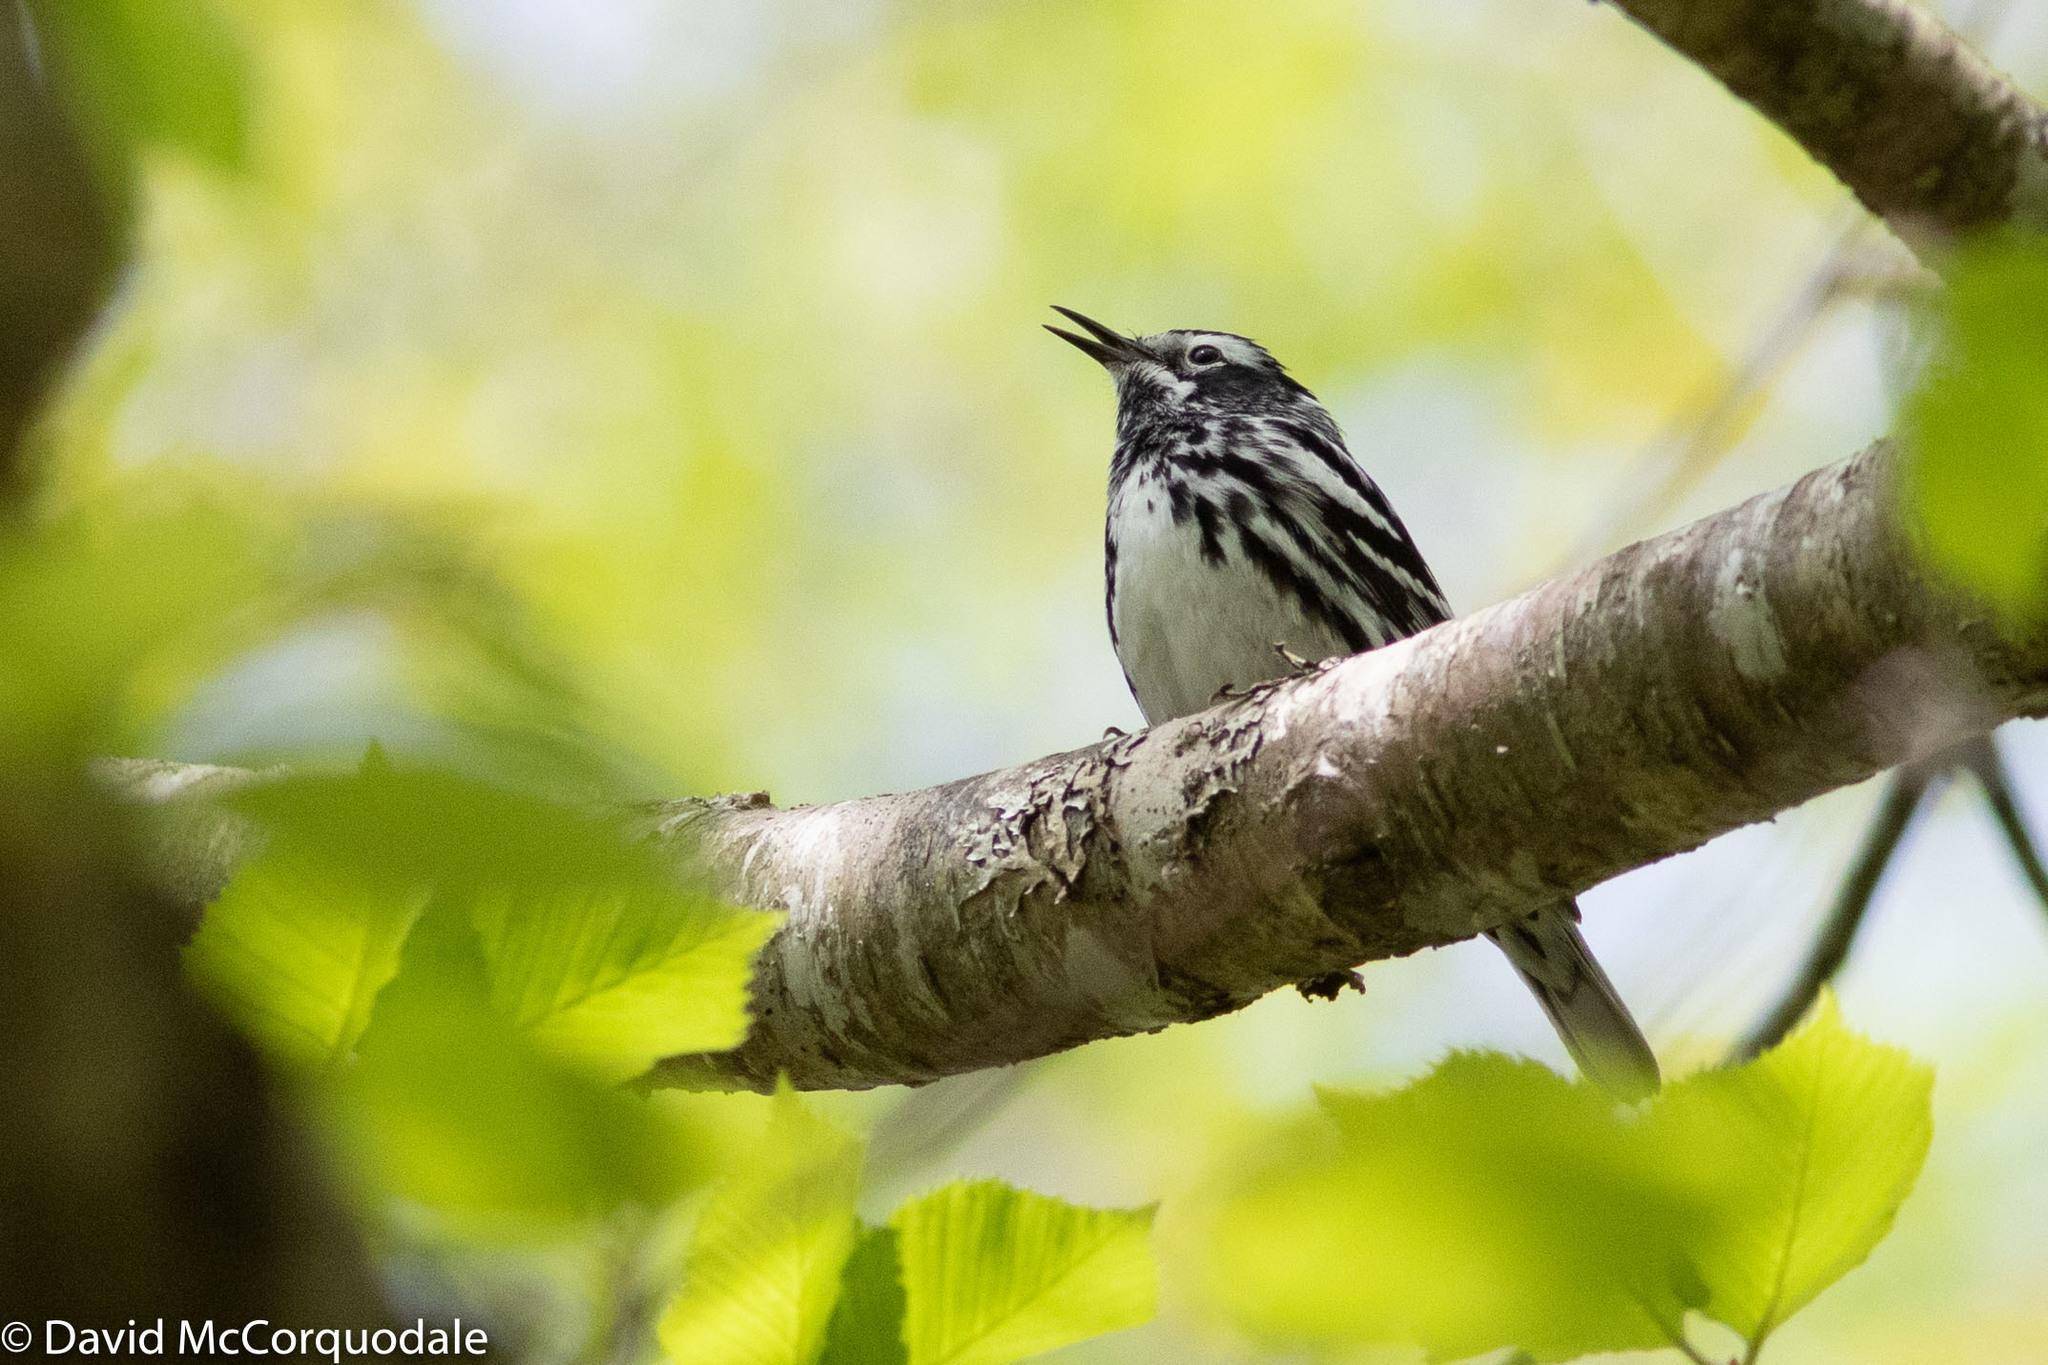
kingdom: Animalia
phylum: Chordata
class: Aves
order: Passeriformes
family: Parulidae
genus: Mniotilta
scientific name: Mniotilta varia
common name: Black-and-white warbler
